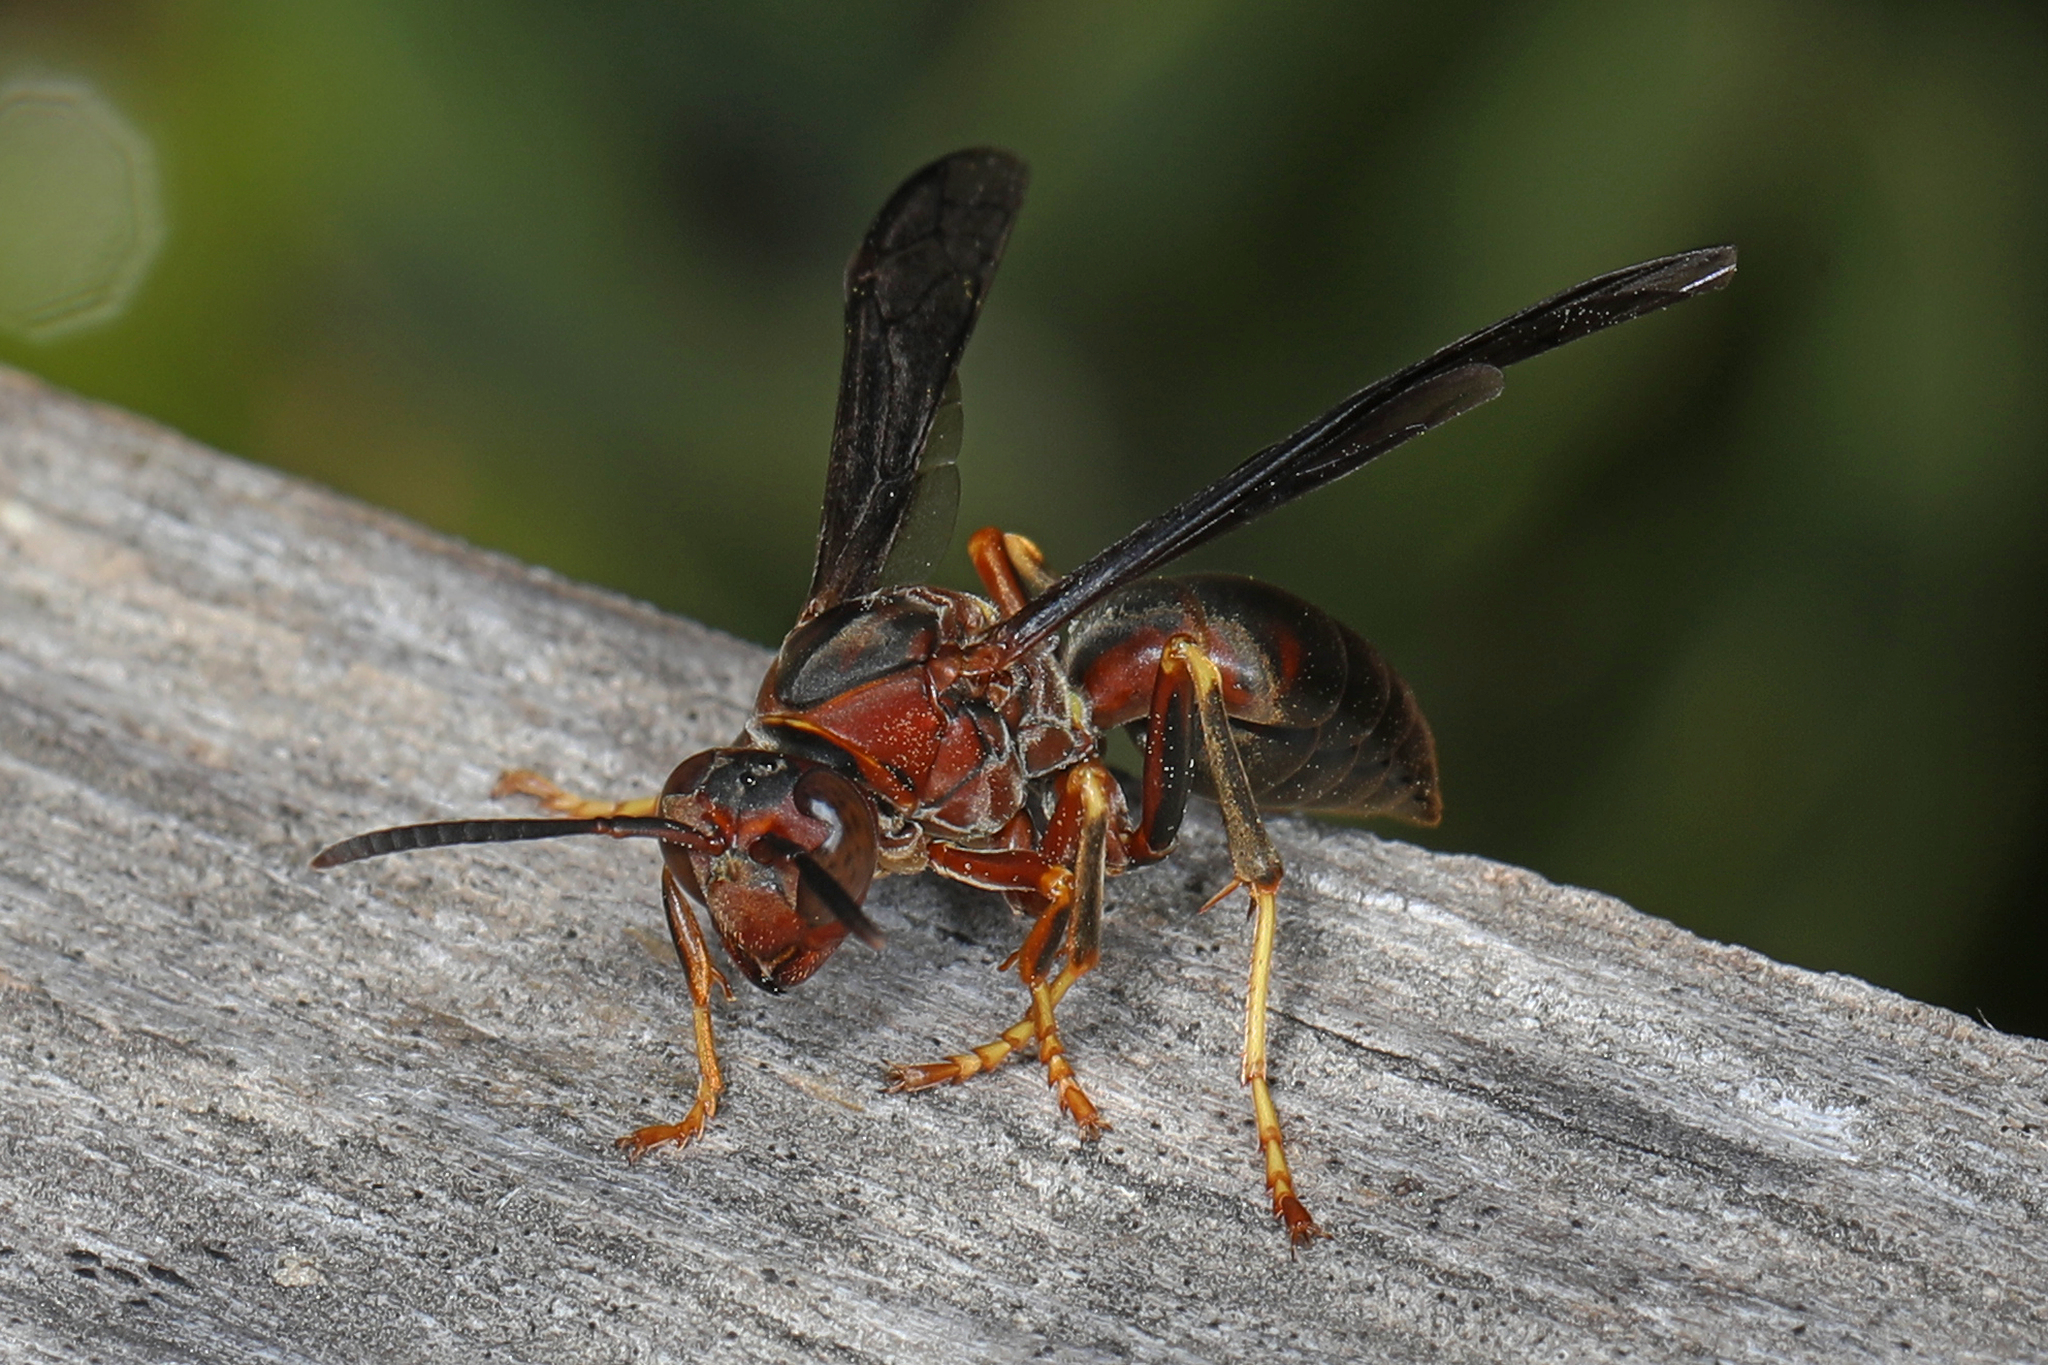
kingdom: Animalia
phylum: Arthropoda
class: Insecta
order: Hymenoptera
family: Eumenidae
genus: Polistes
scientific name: Polistes metricus
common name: Metric paper wasp
